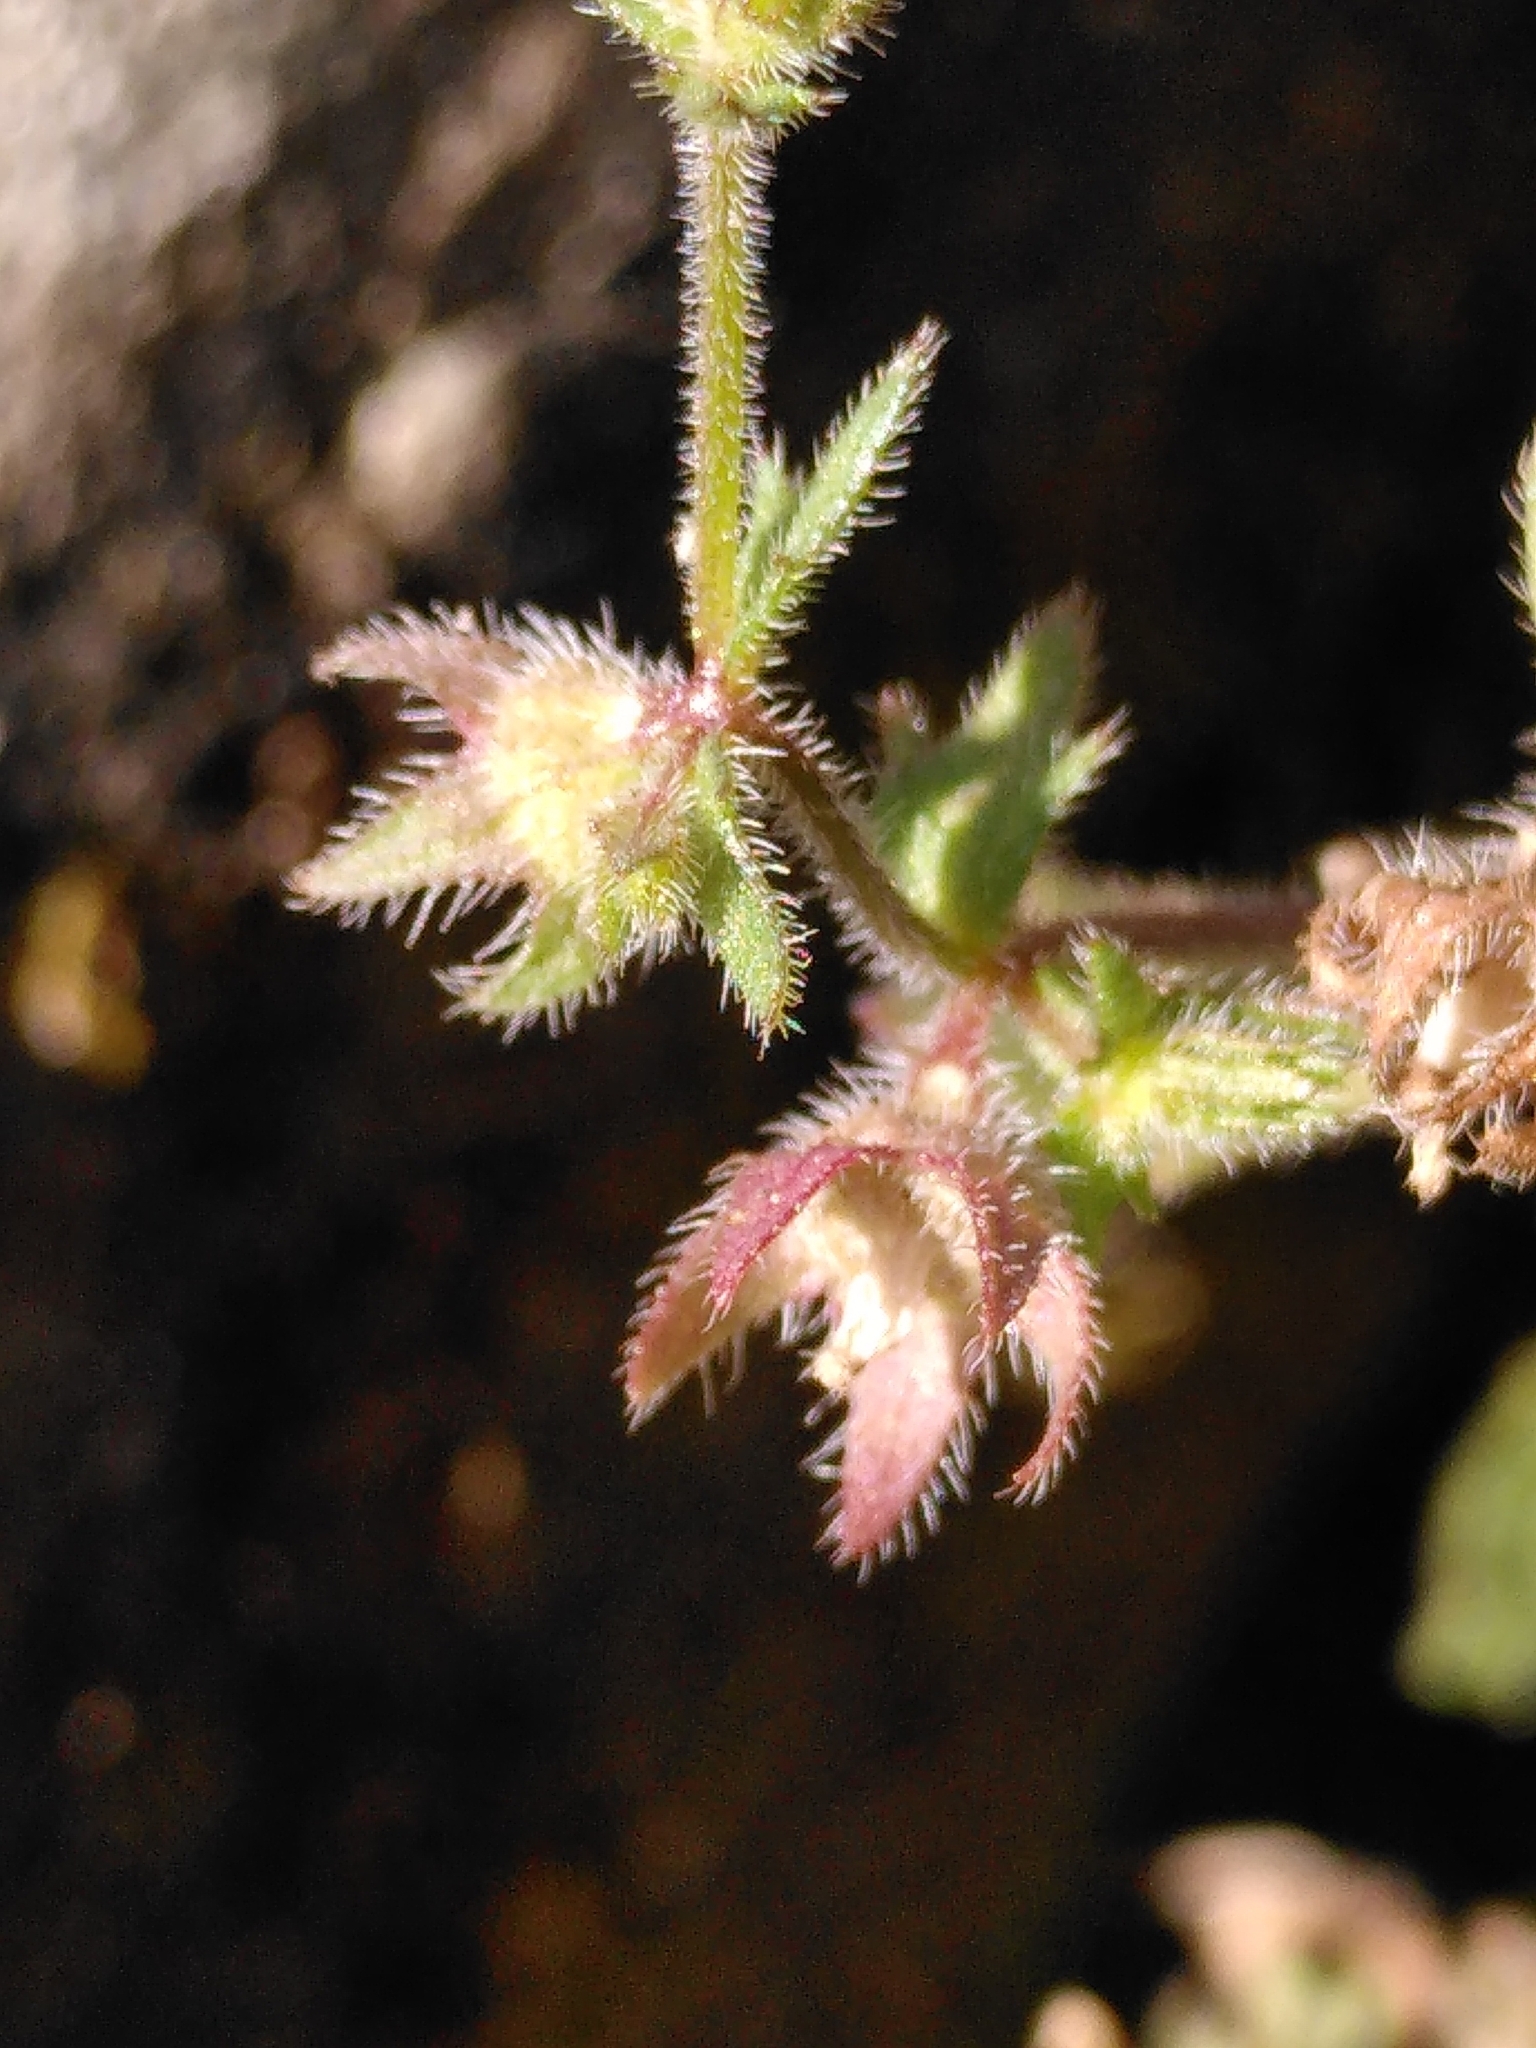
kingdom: Plantae
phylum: Tracheophyta
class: Magnoliopsida
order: Asterales
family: Campanulaceae
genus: Campanula
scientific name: Campanula erinus
